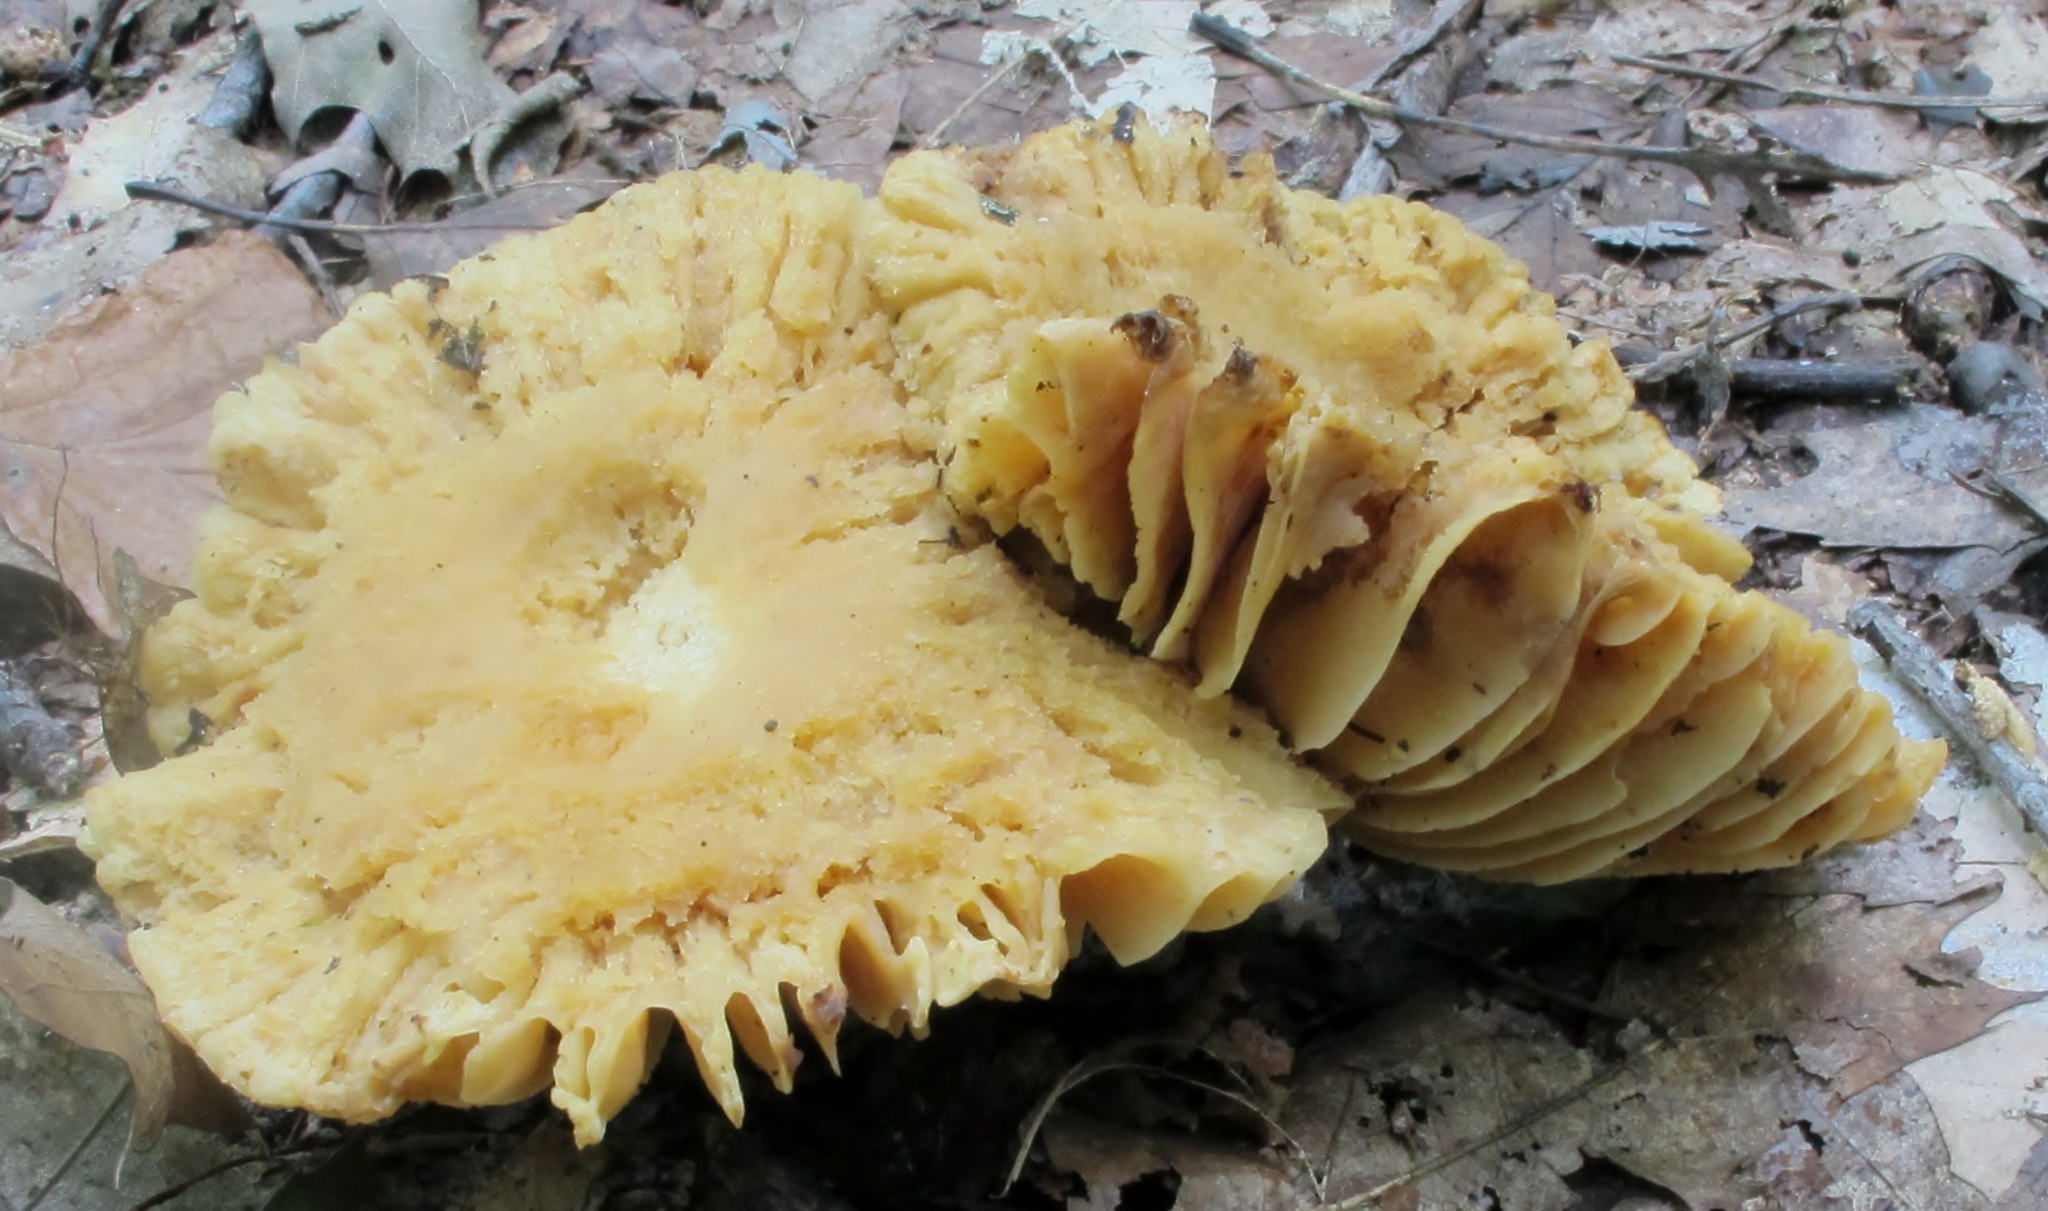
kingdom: Fungi
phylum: Basidiomycota
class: Agaricomycetes
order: Russulales
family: Russulaceae
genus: Russula
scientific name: Russula earlei
